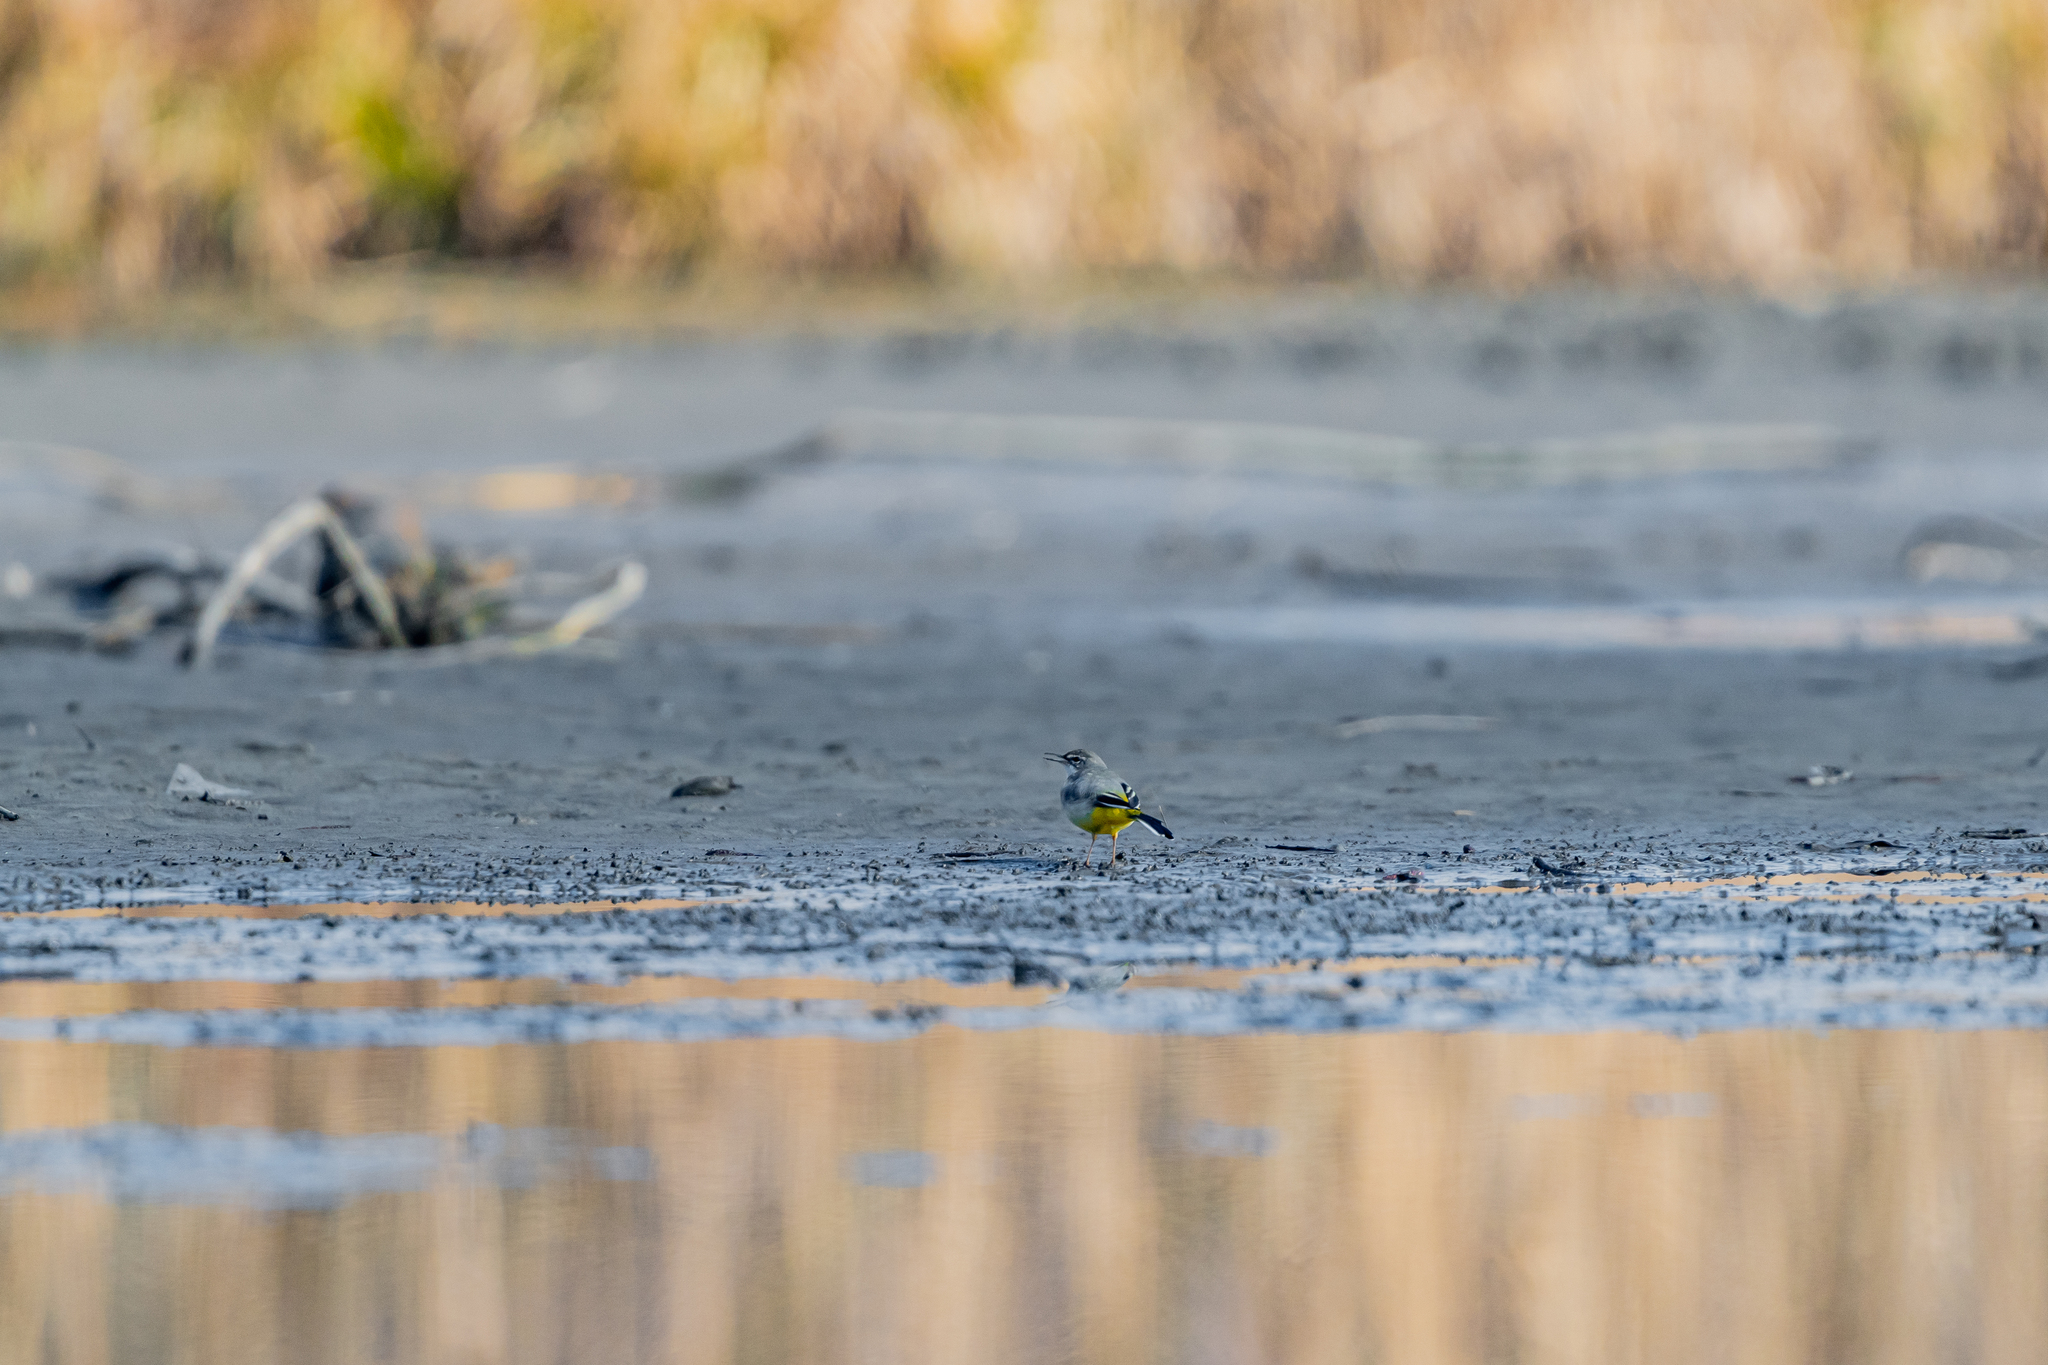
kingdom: Animalia
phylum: Chordata
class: Aves
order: Passeriformes
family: Motacillidae
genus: Motacilla
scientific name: Motacilla cinerea
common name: Grey wagtail
